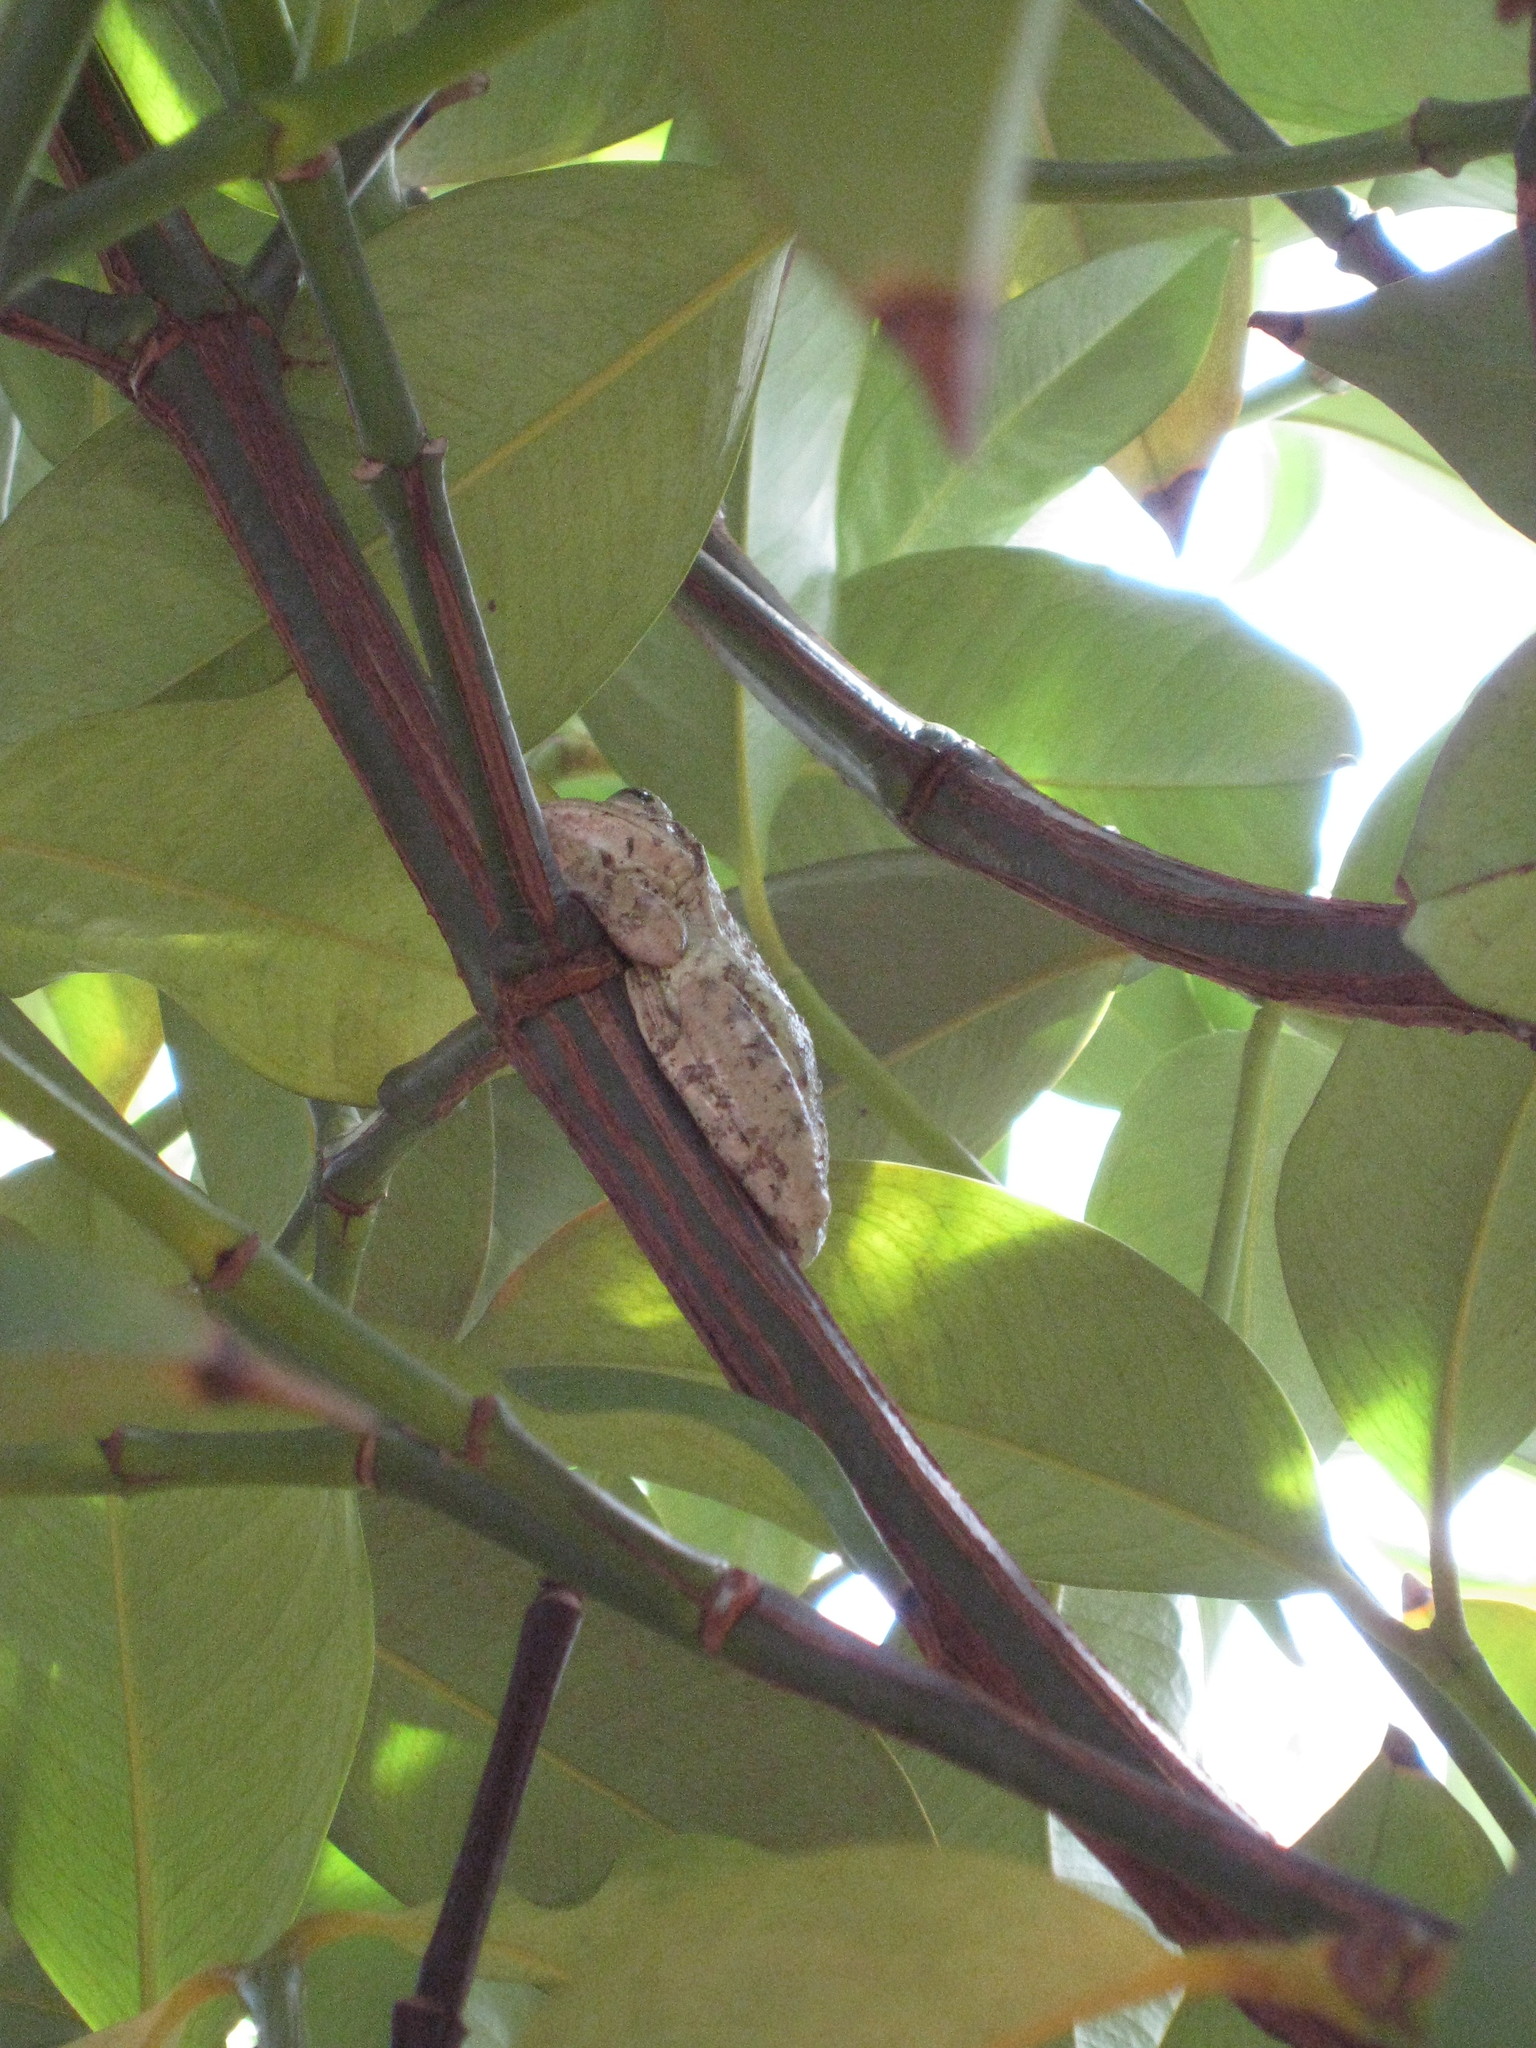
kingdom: Animalia
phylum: Chordata
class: Amphibia
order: Anura
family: Hylidae
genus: Osteopilus
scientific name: Osteopilus septentrionalis
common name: Cuban treefrog
